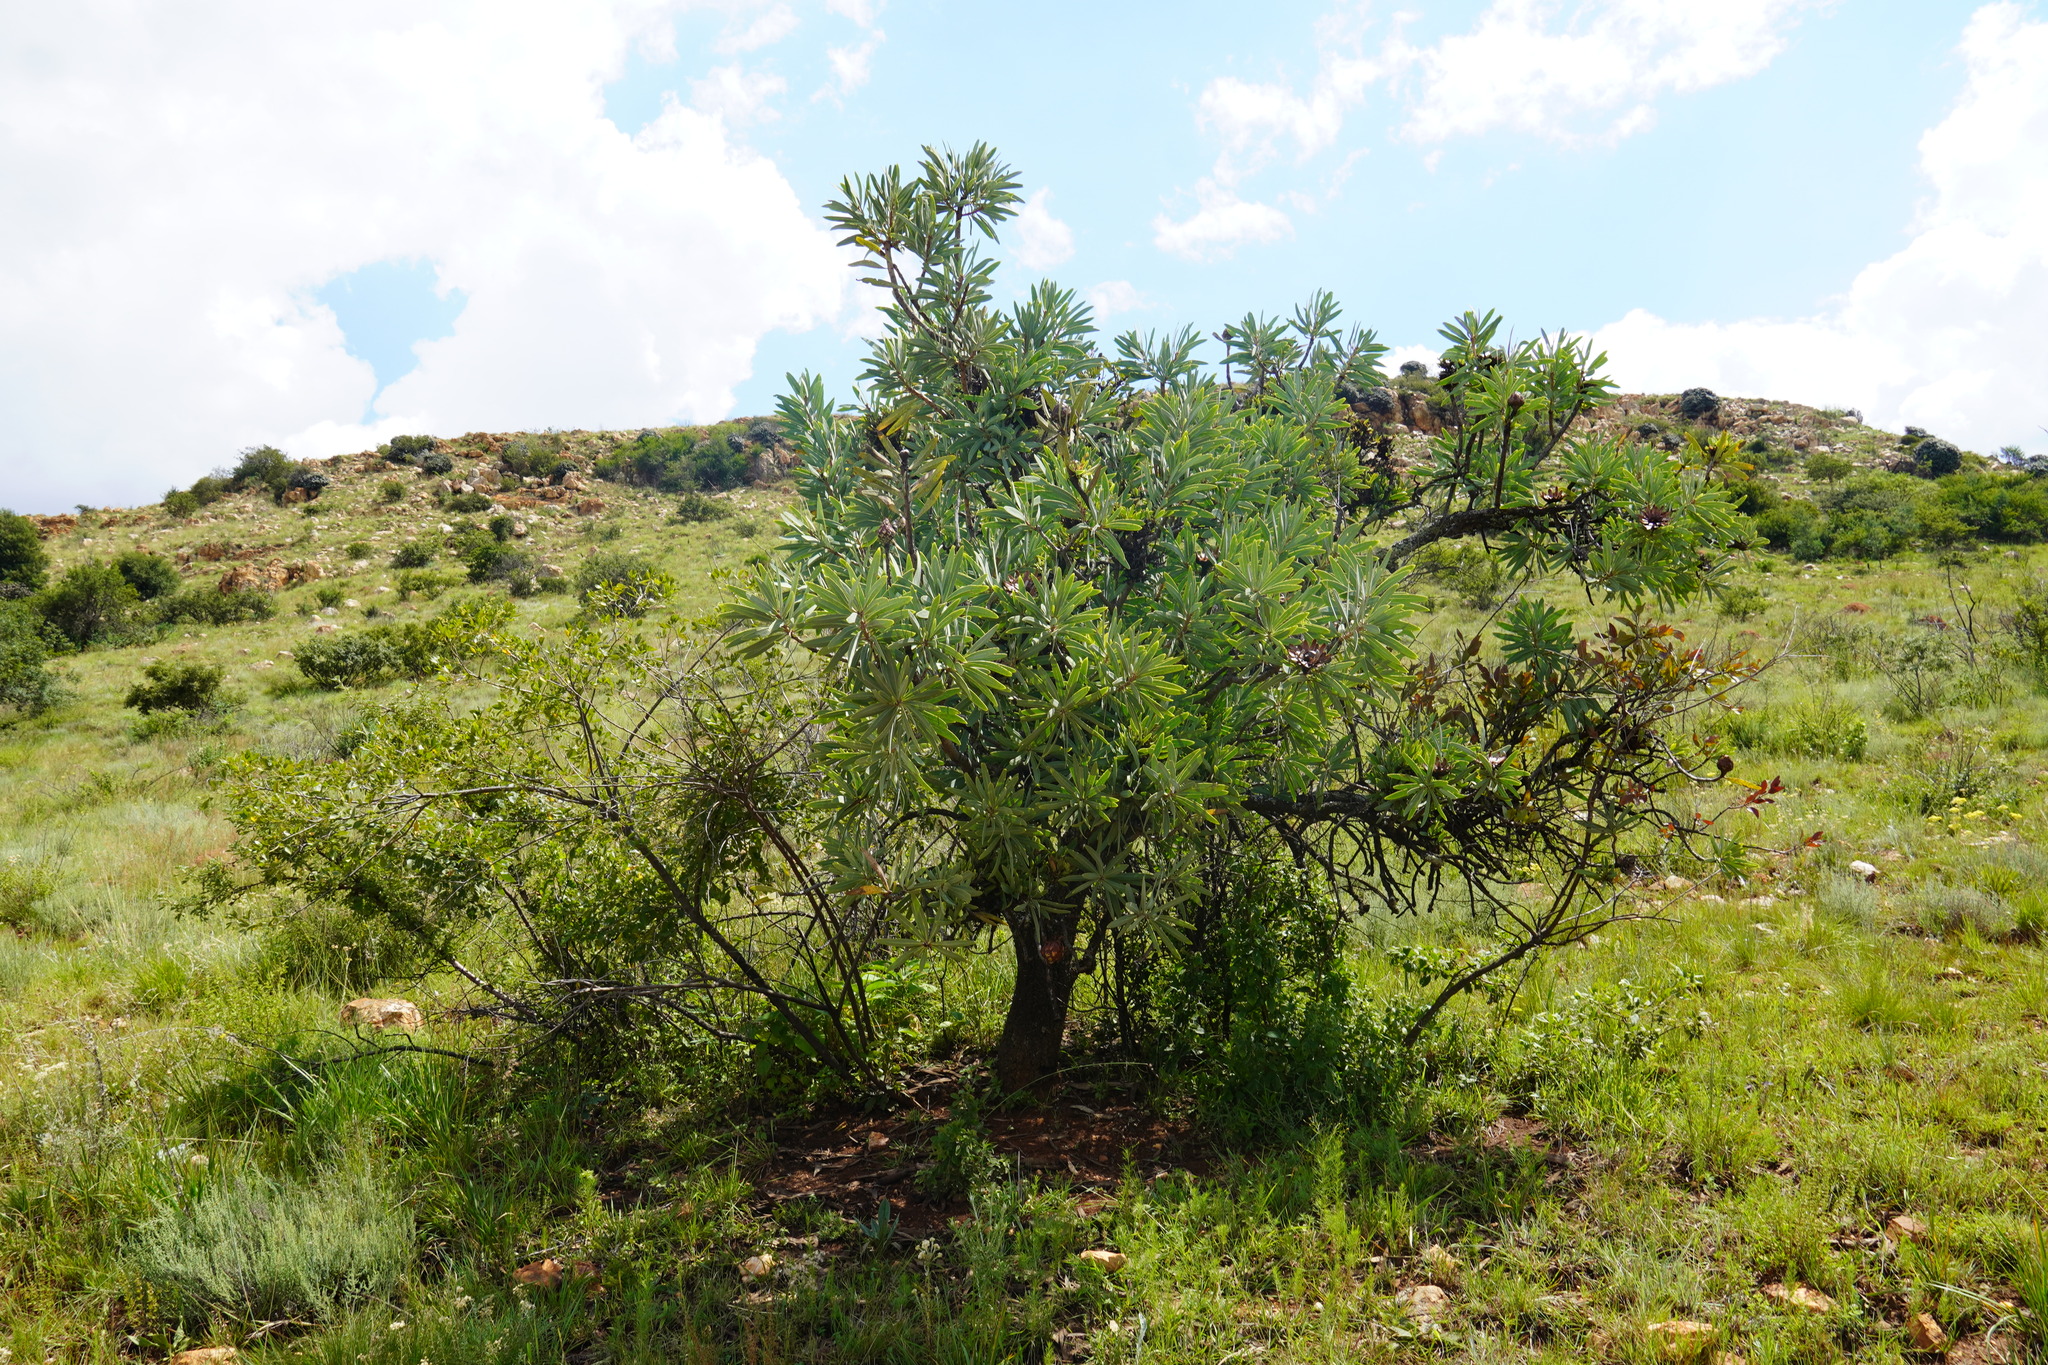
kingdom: Plantae
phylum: Tracheophyta
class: Magnoliopsida
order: Proteales
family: Proteaceae
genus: Protea
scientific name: Protea caffra
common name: Common sugarbush
